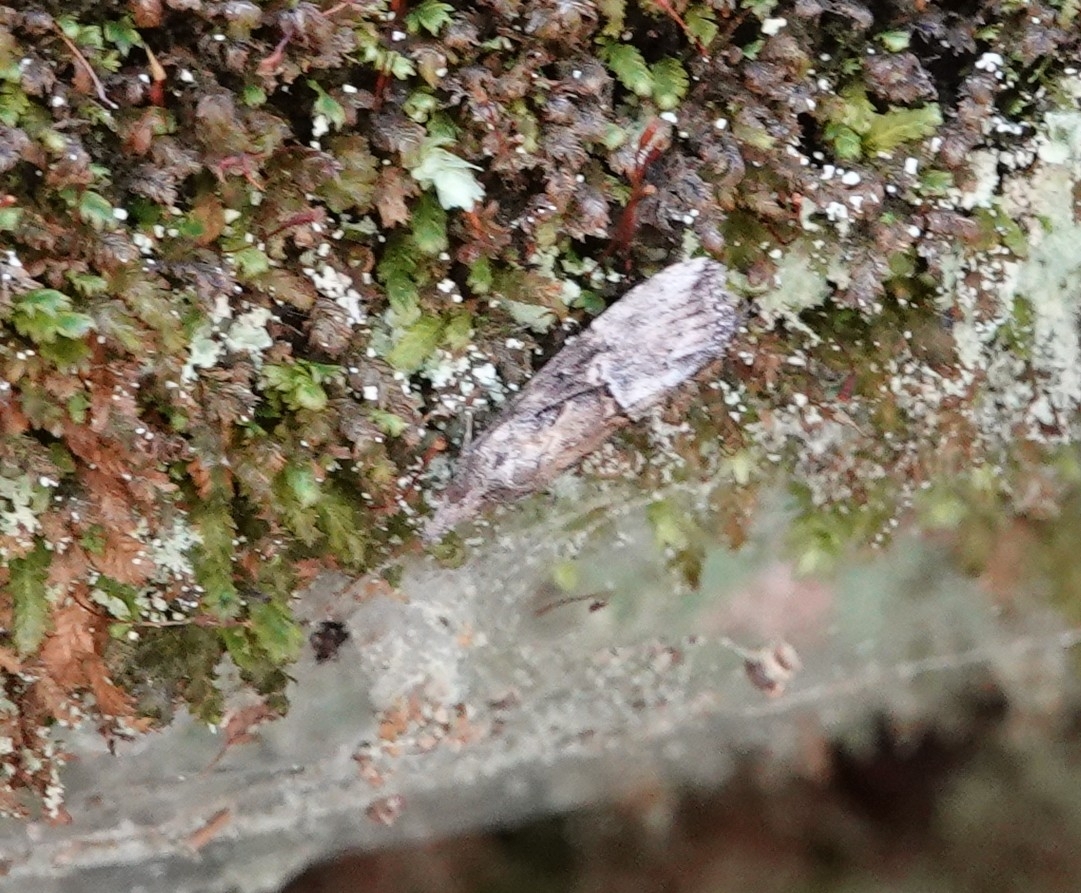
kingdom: Animalia
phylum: Arthropoda
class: Insecta
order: Lepidoptera
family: Erebidae
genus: Hypena
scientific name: Hypena scabra
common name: Green cloverworm
